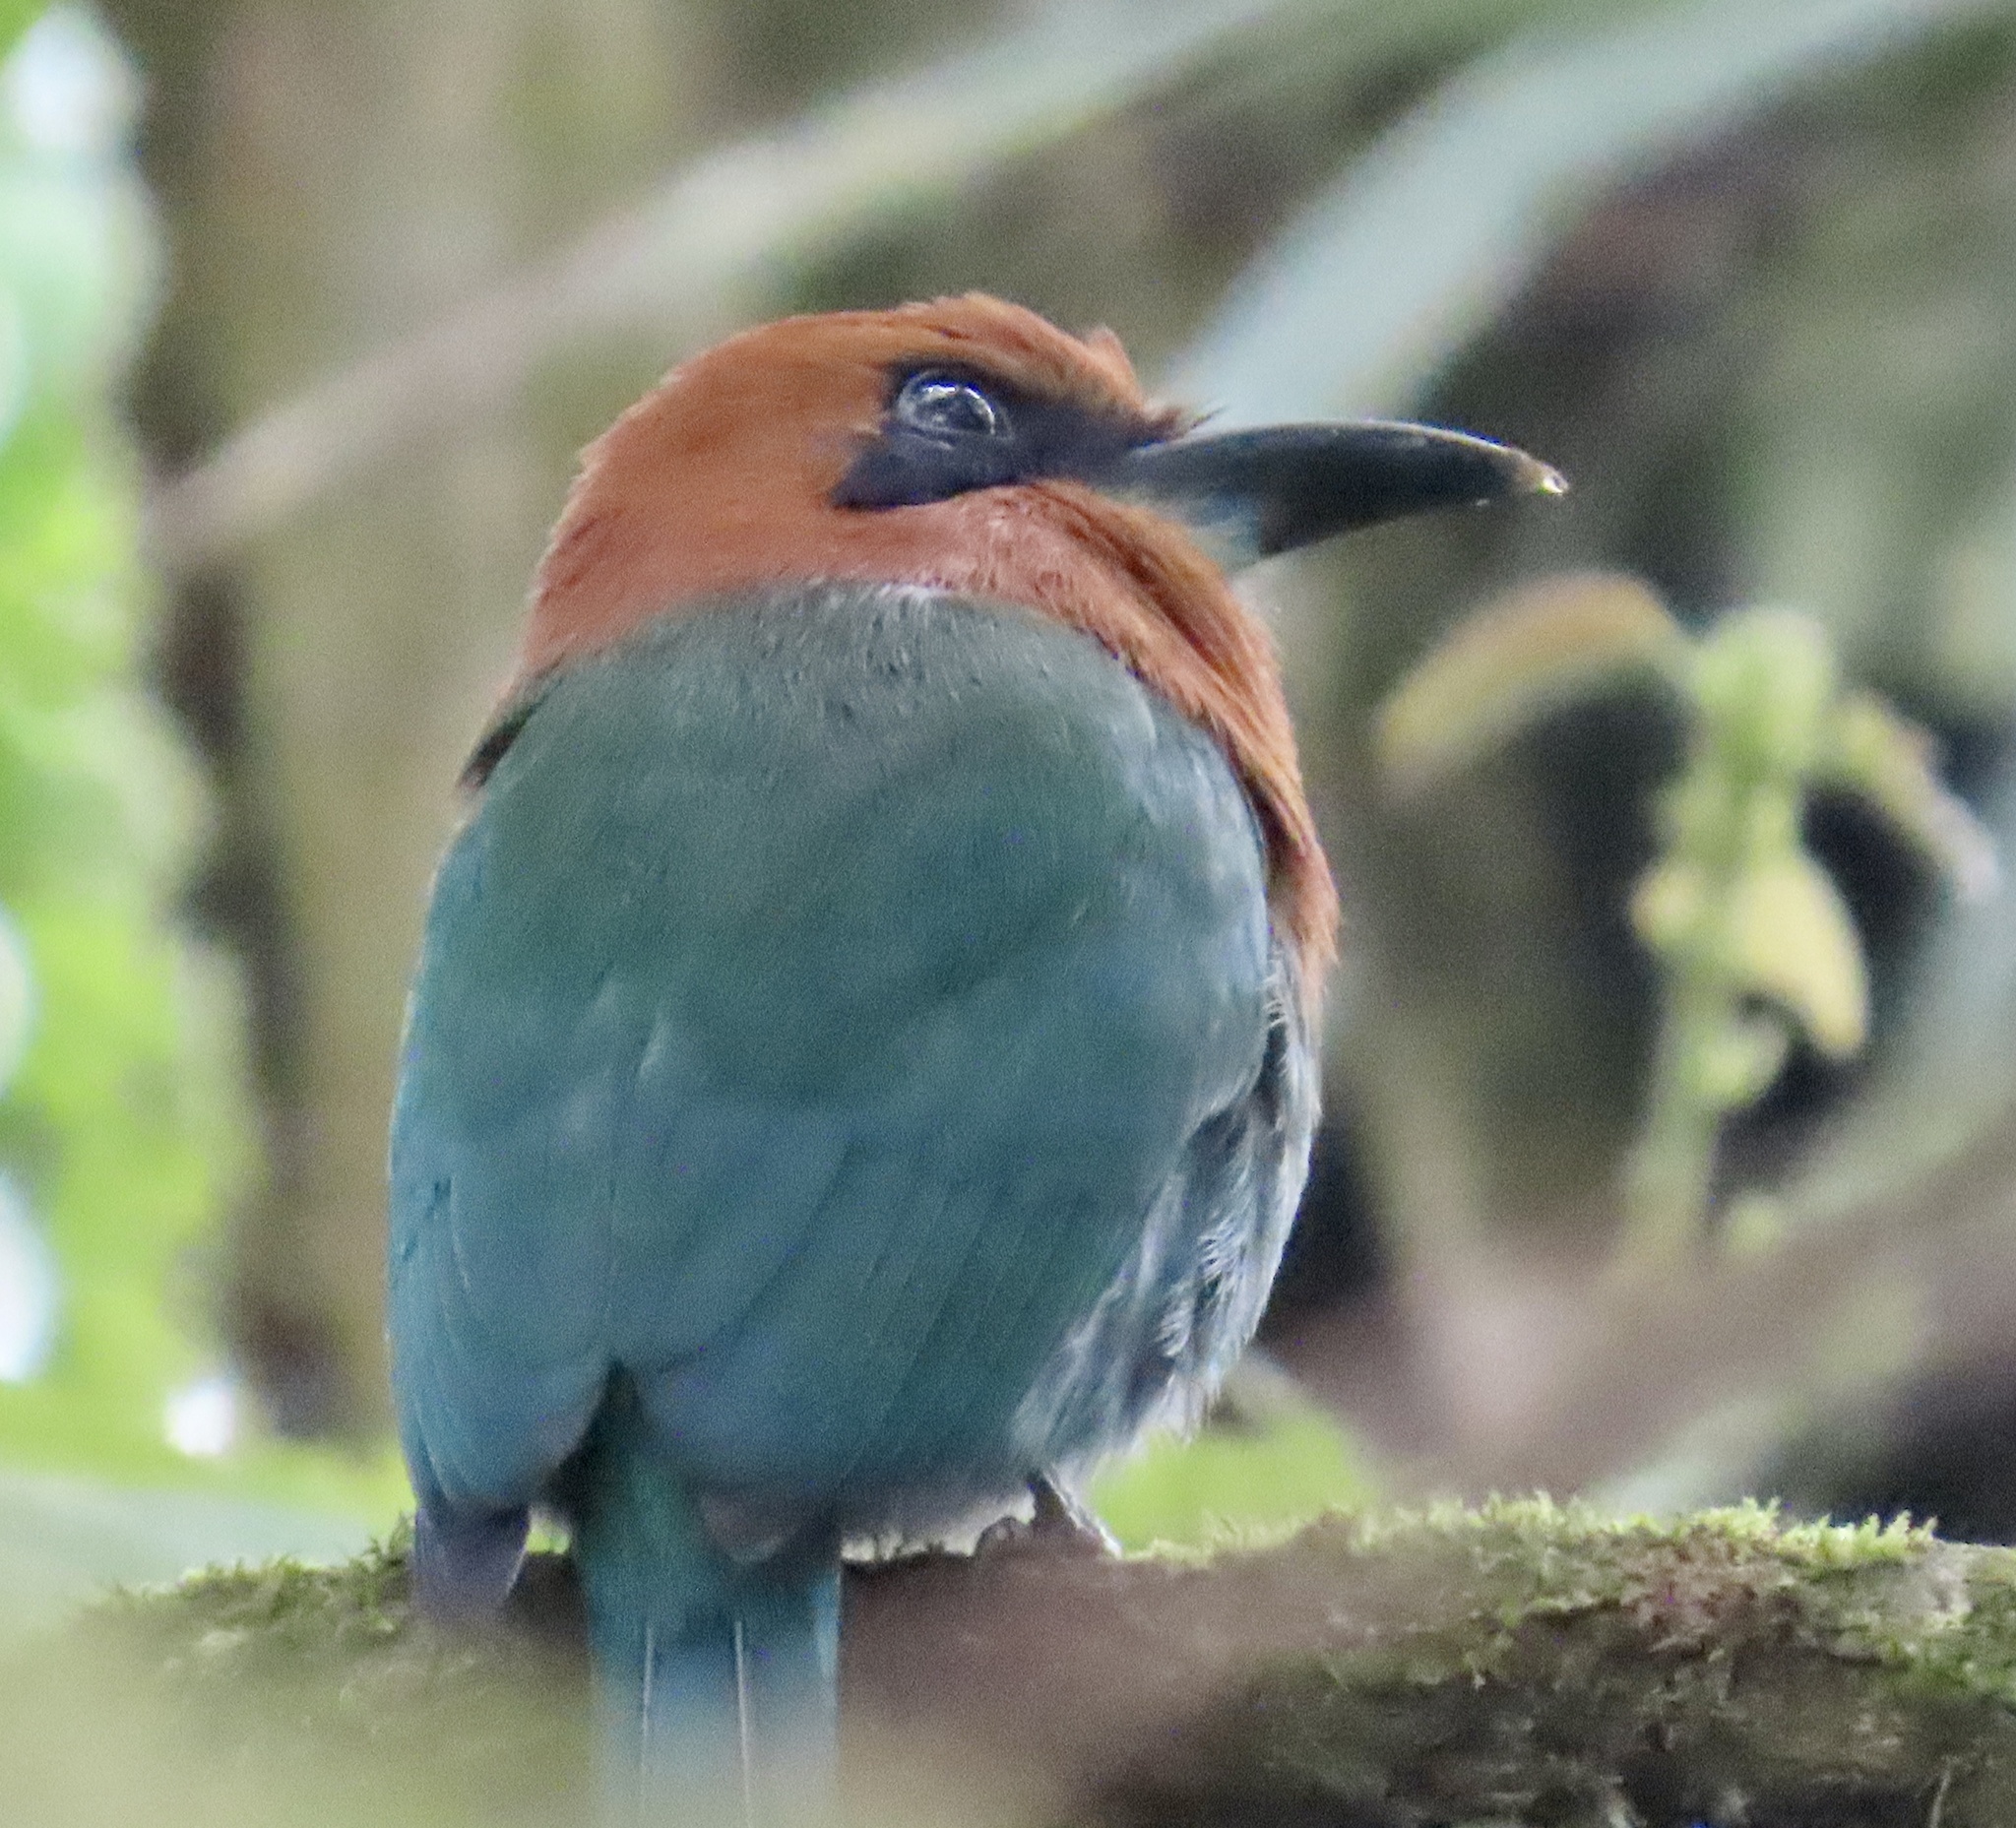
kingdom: Animalia
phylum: Chordata
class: Aves
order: Coraciiformes
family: Momotidae
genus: Electron
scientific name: Electron platyrhynchum
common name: Broad-billed motmot
